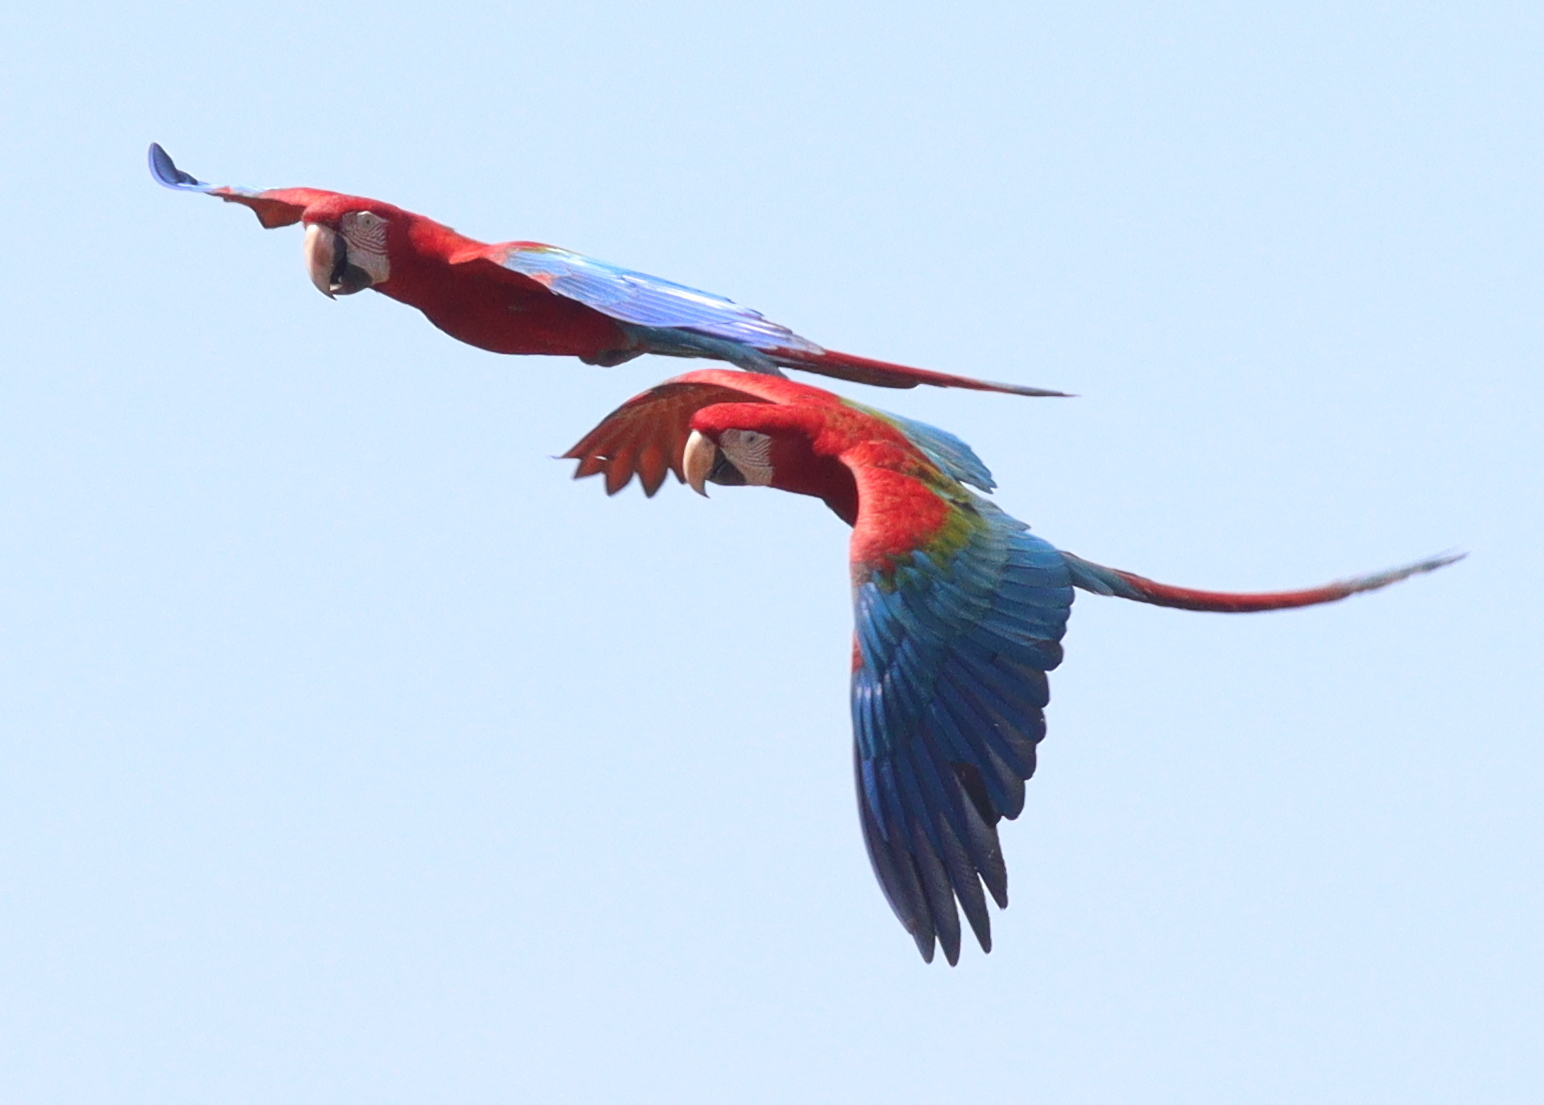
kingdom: Animalia
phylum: Chordata
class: Aves
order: Psittaciformes
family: Psittacidae
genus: Ara
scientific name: Ara chloropterus
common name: Red-and-green macaw
